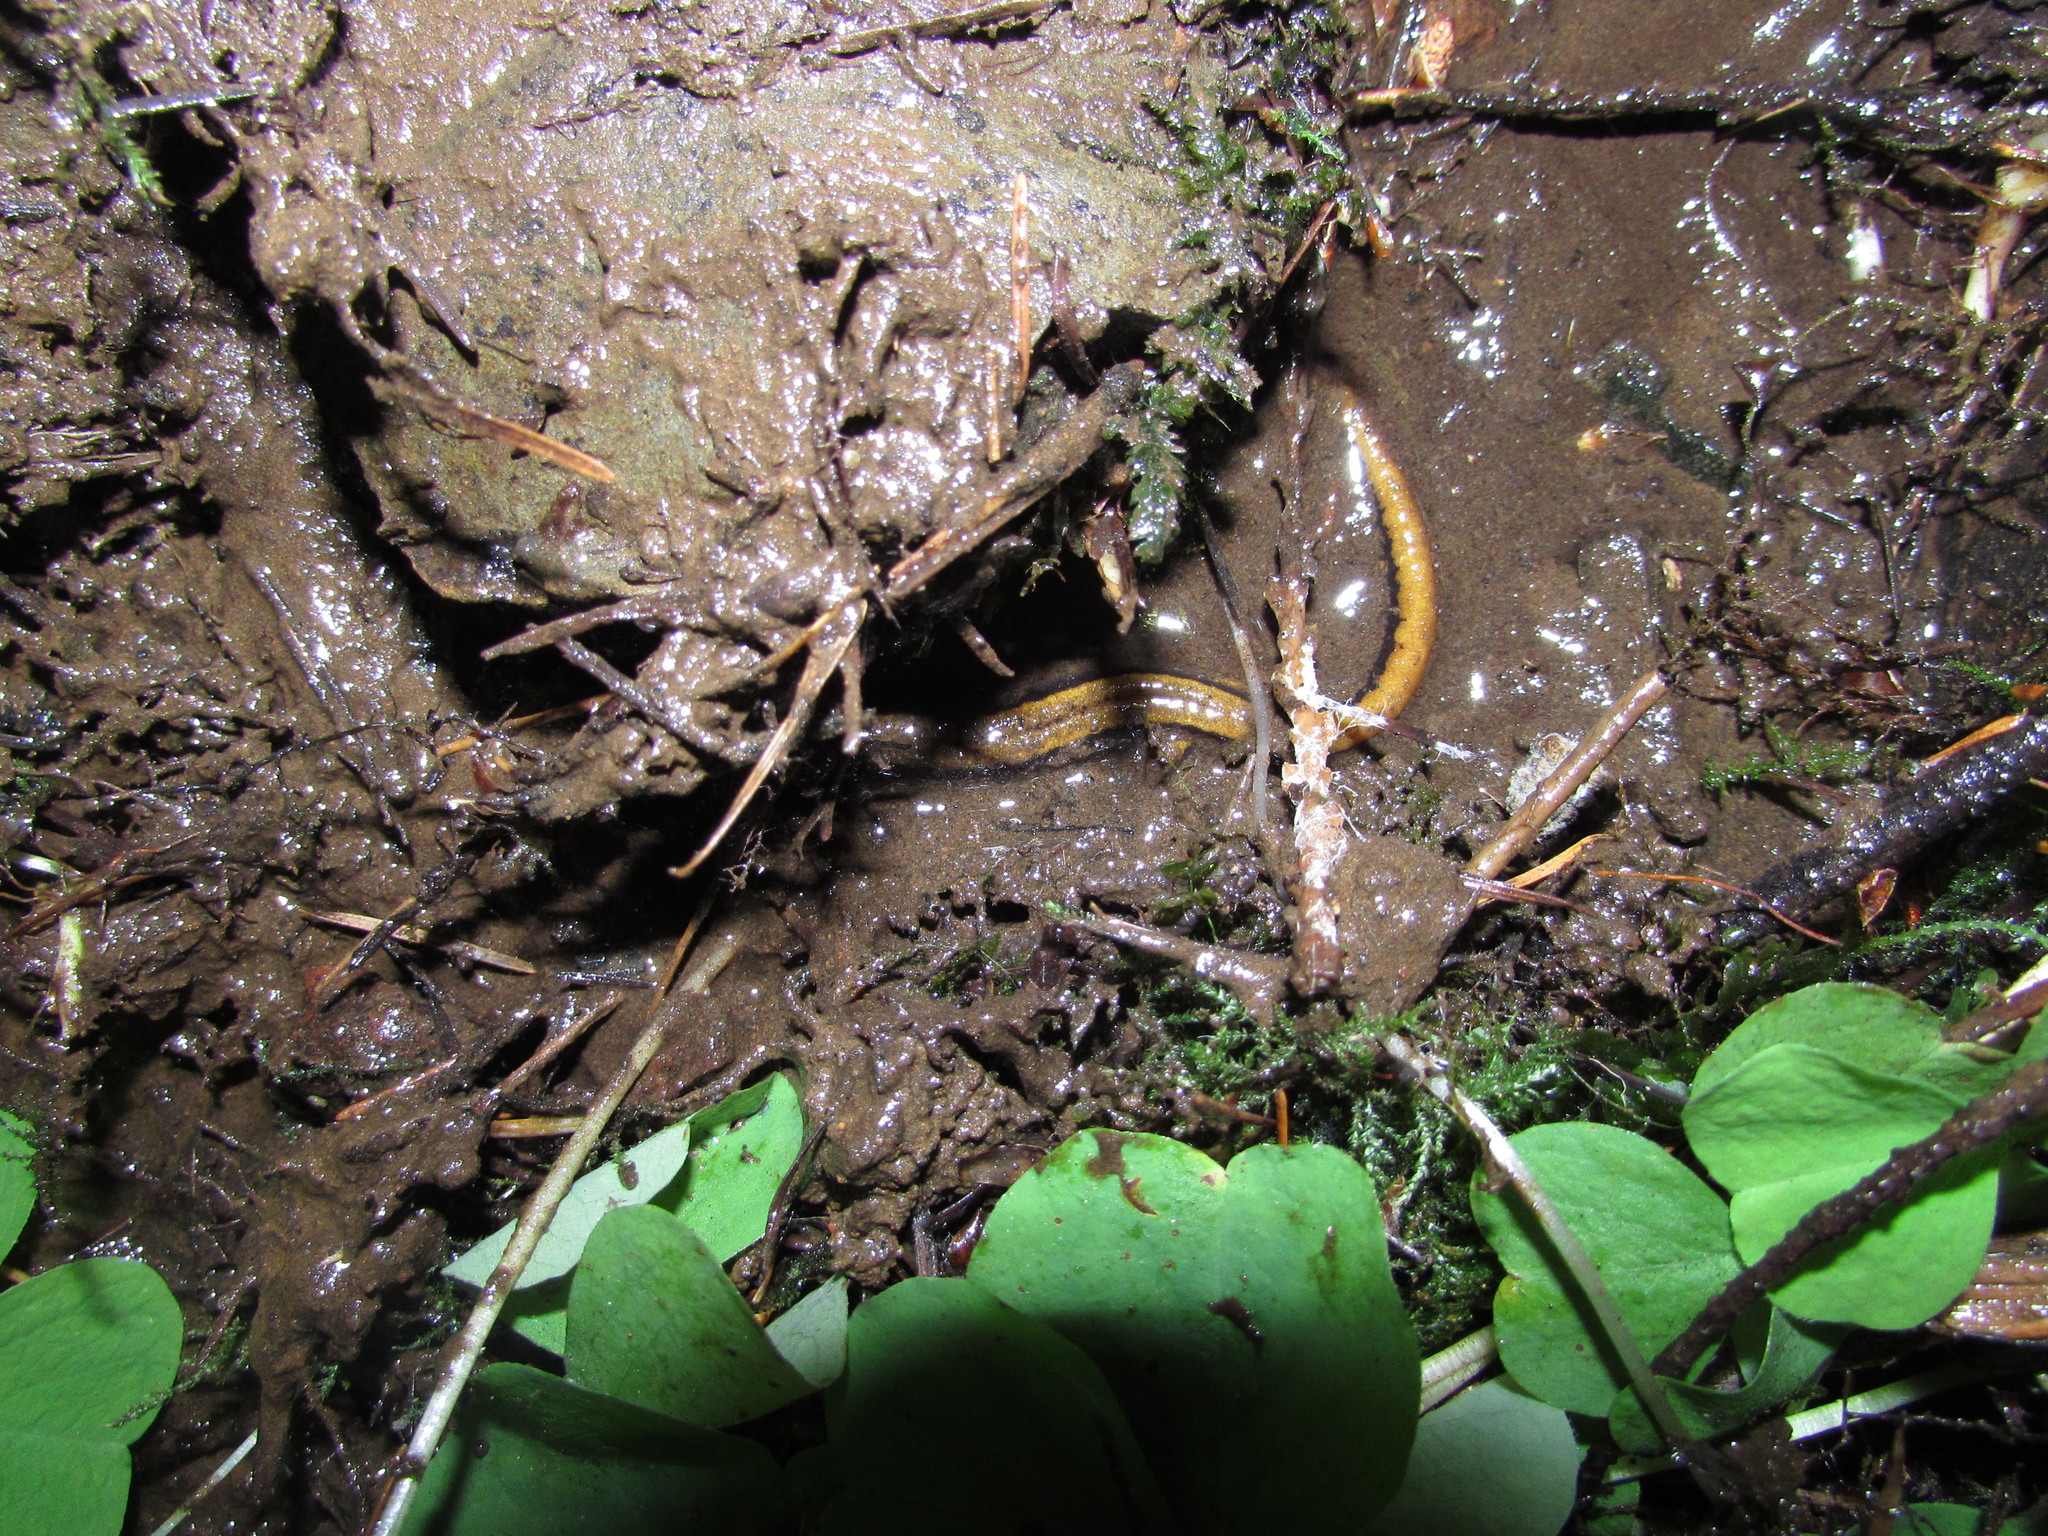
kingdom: Animalia
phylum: Chordata
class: Amphibia
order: Caudata
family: Plethodontidae
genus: Plethodon
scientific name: Plethodon vehiculum
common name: Western red-backed salamander
